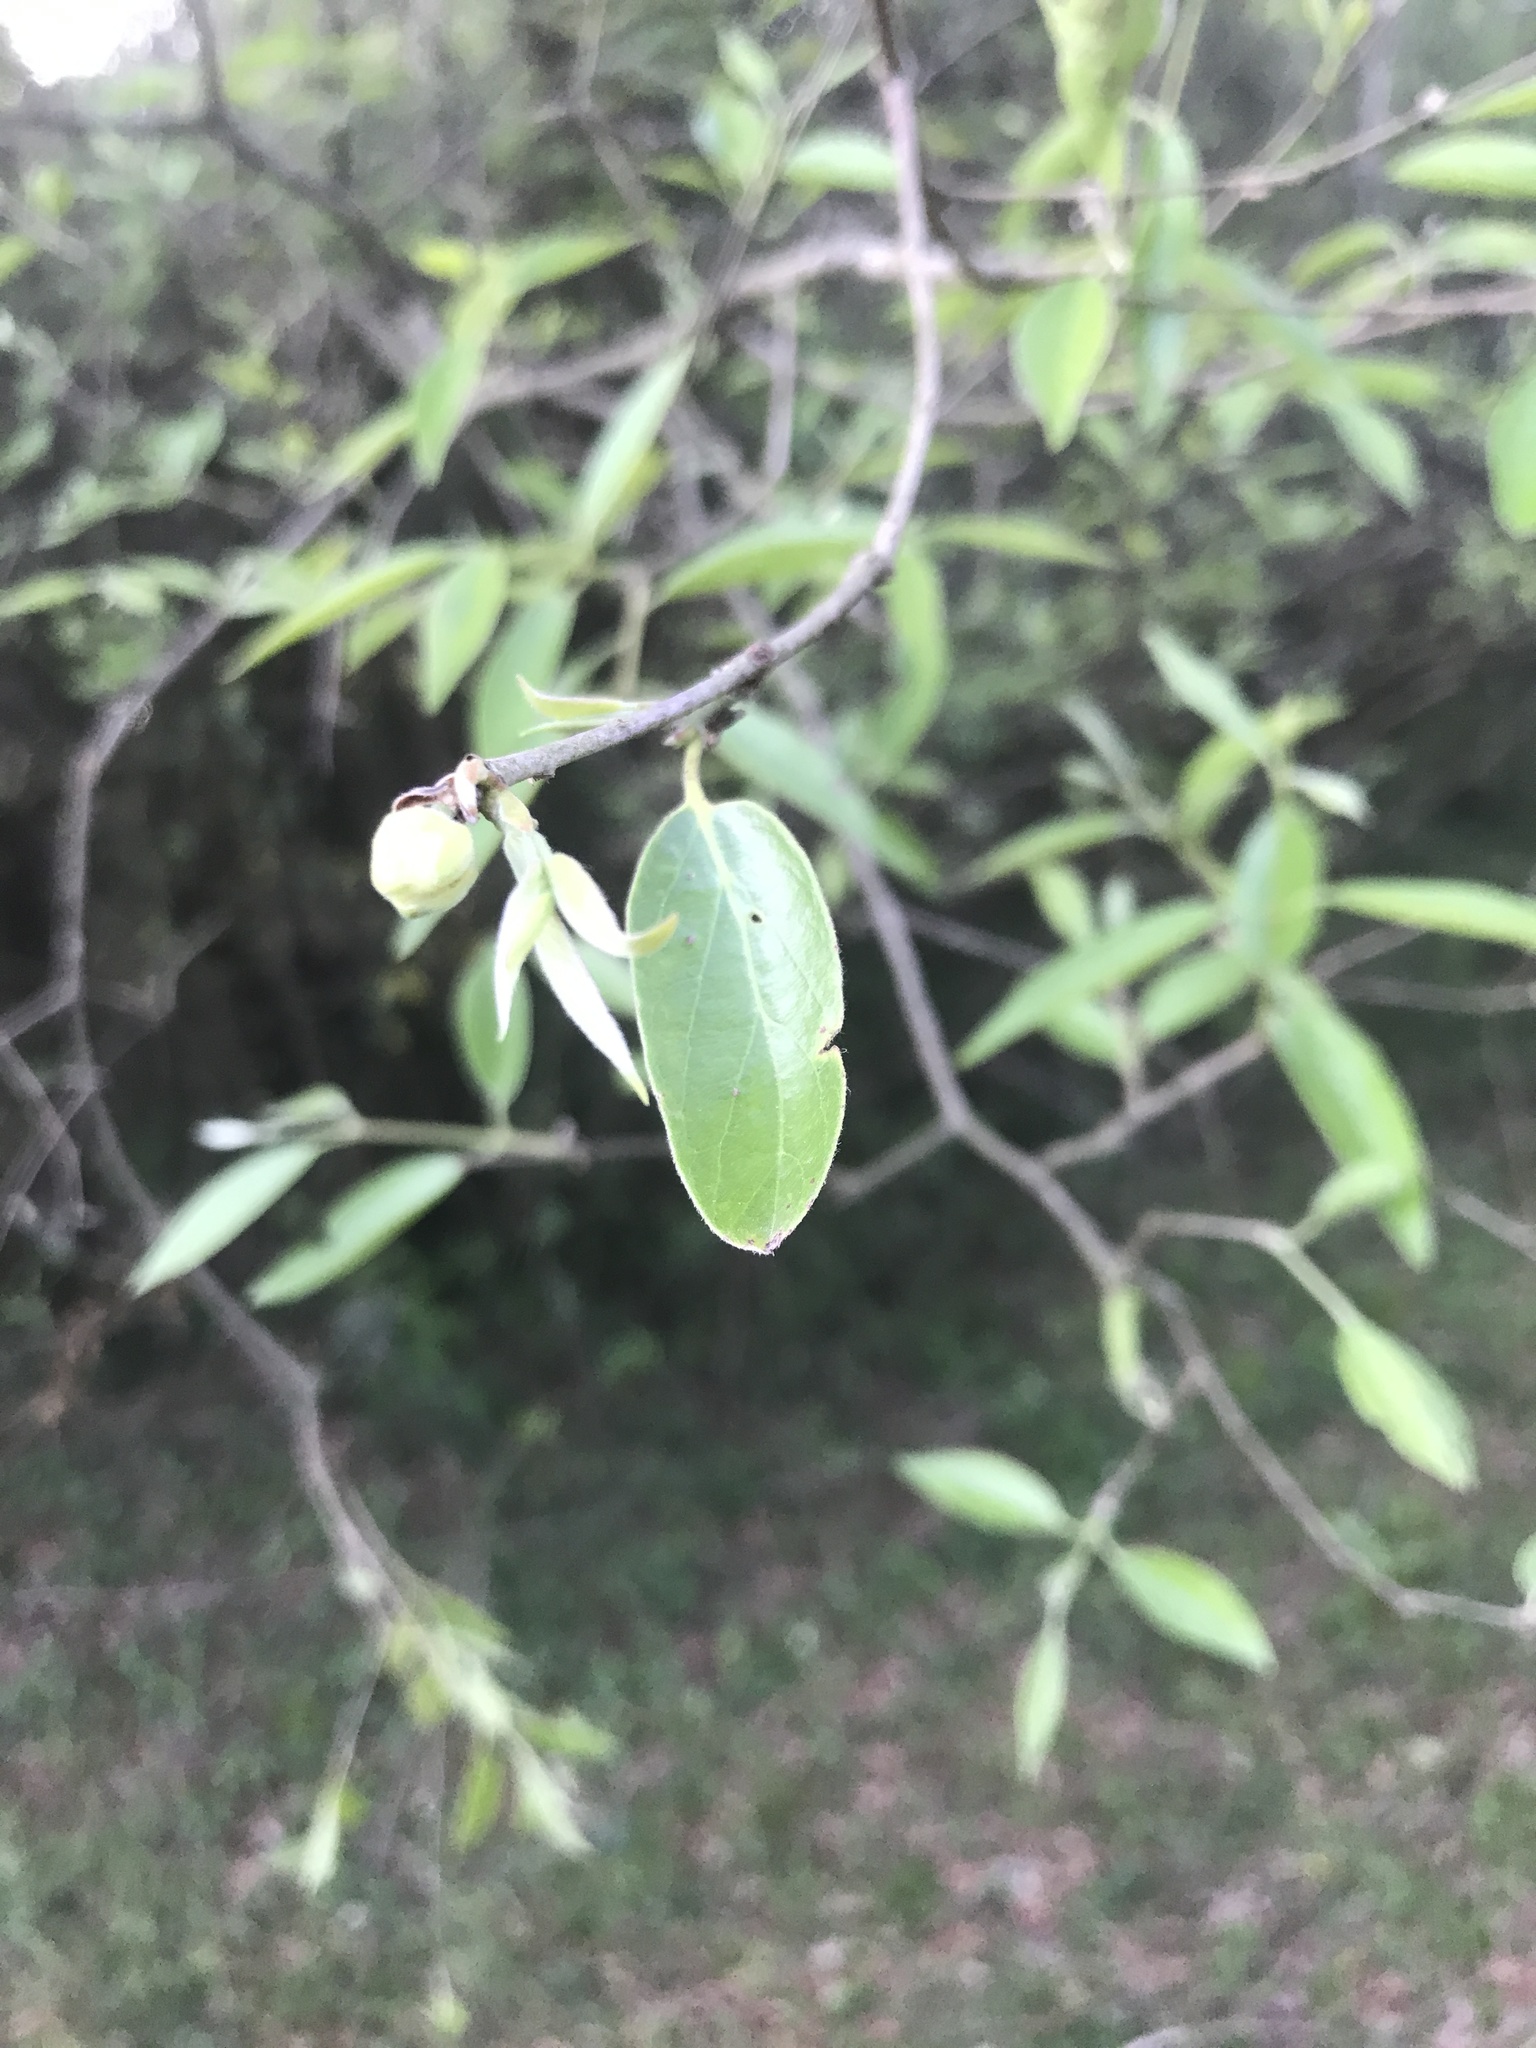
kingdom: Plantae
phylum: Tracheophyta
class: Magnoliopsida
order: Myrtales
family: Myrtaceae
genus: Eugenia
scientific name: Eugenia myrcianthes
